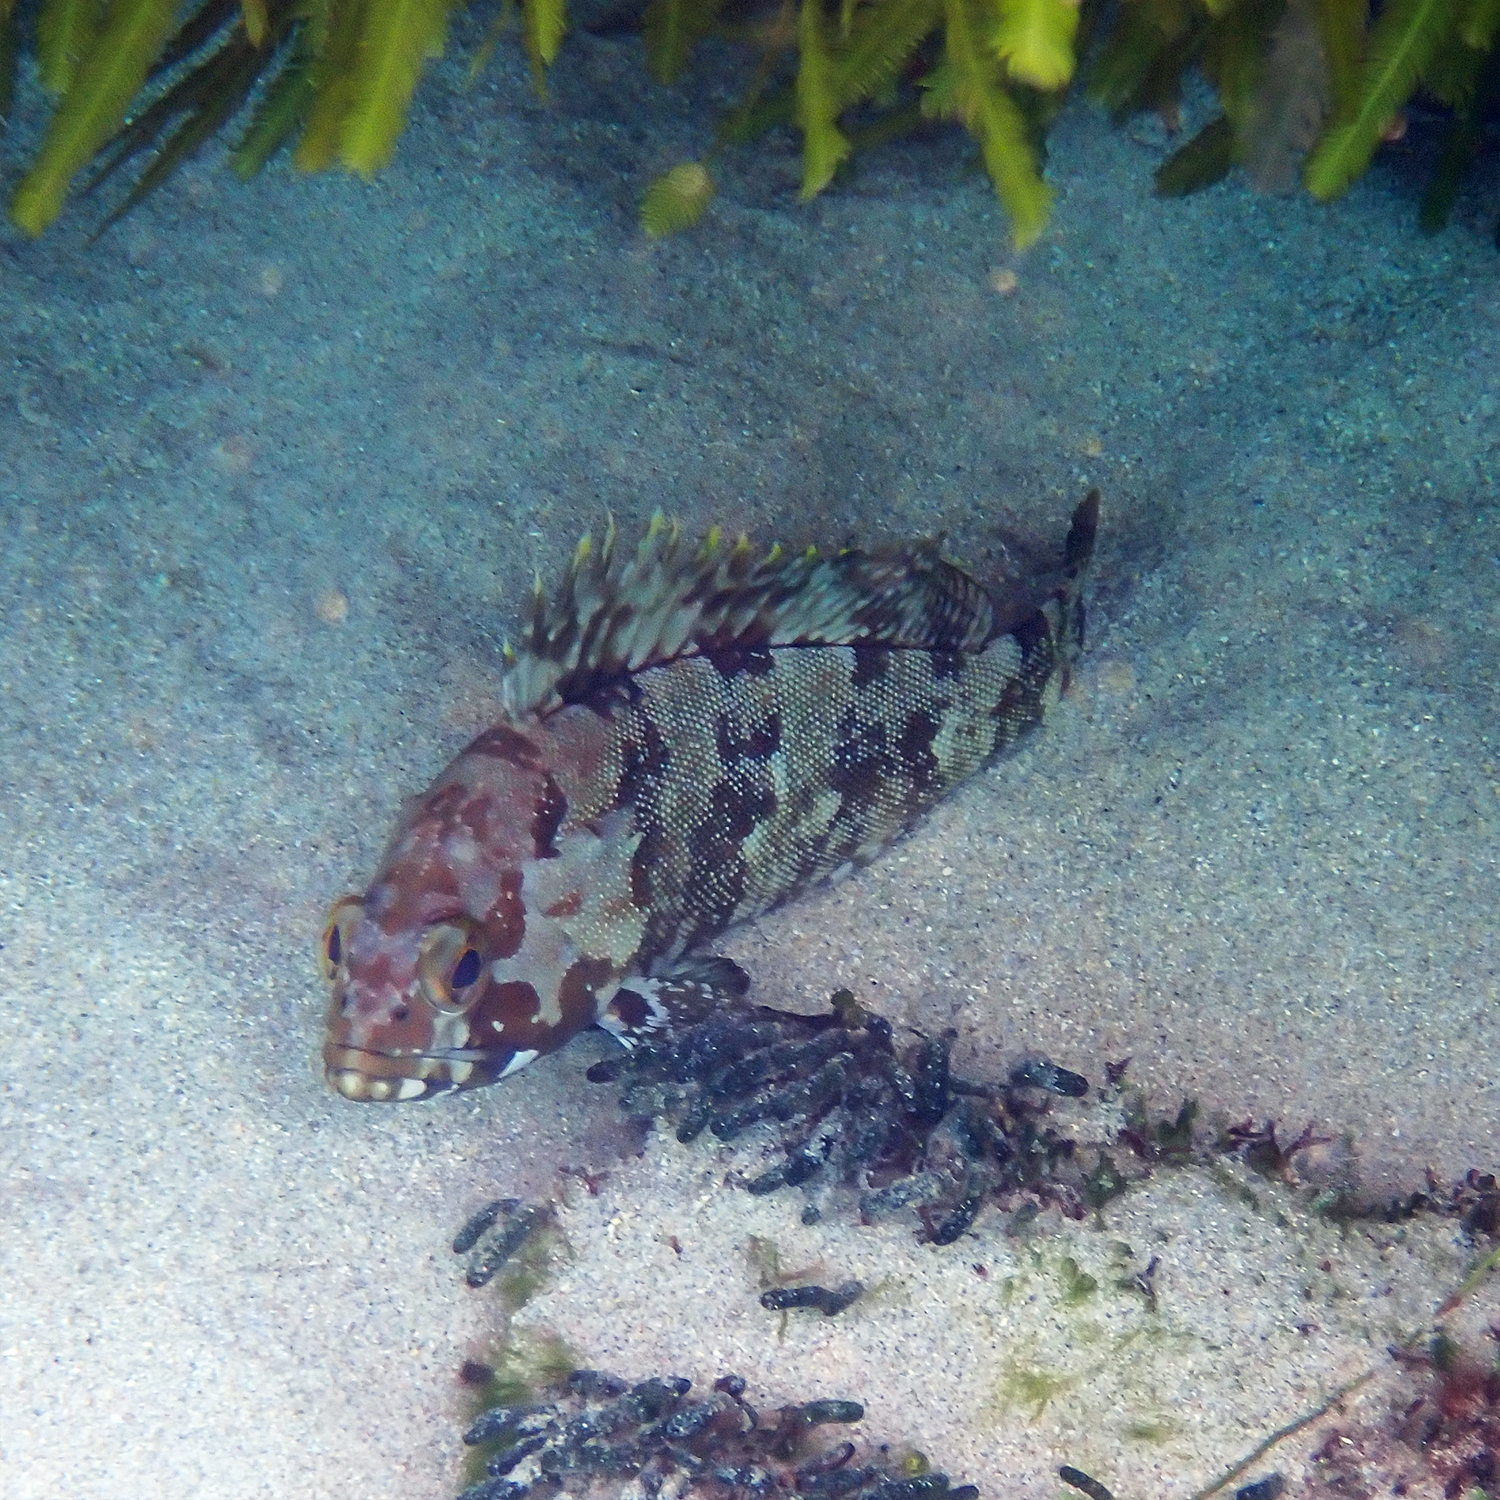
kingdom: Animalia
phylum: Chordata
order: Perciformes
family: Serranidae
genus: Epinephelus
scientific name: Epinephelus rivulatus
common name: Halfmoon grouper
